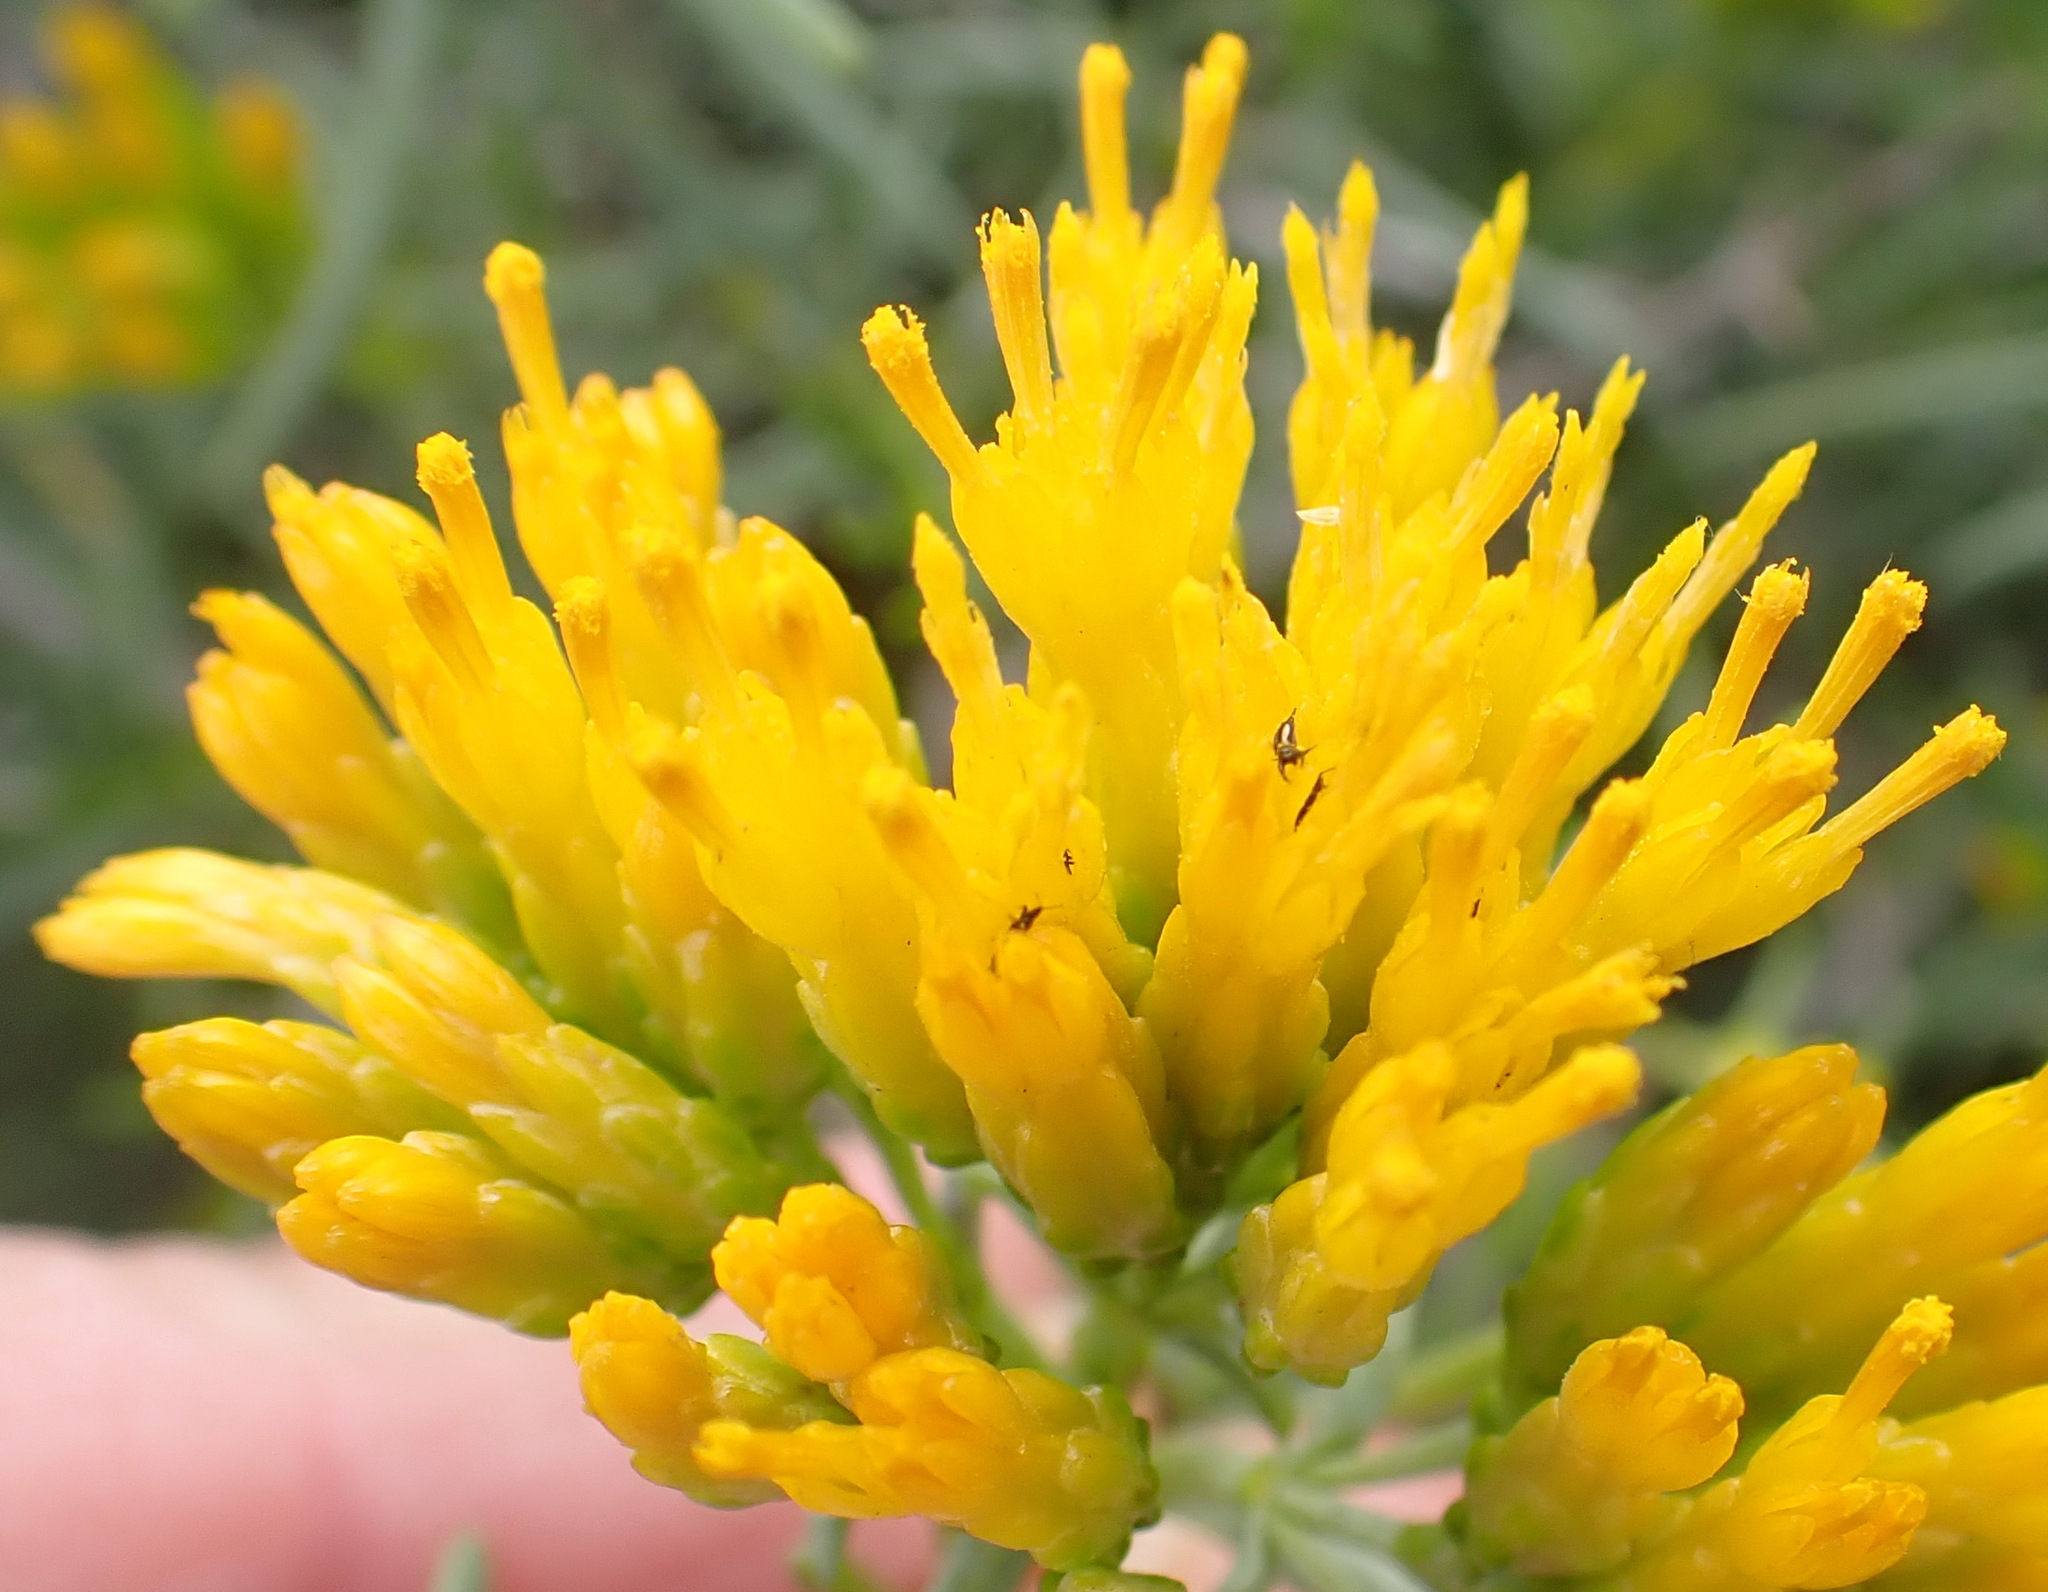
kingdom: Plantae
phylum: Tracheophyta
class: Magnoliopsida
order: Asterales
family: Asteraceae
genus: Pteronia
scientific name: Pteronia paniculata
